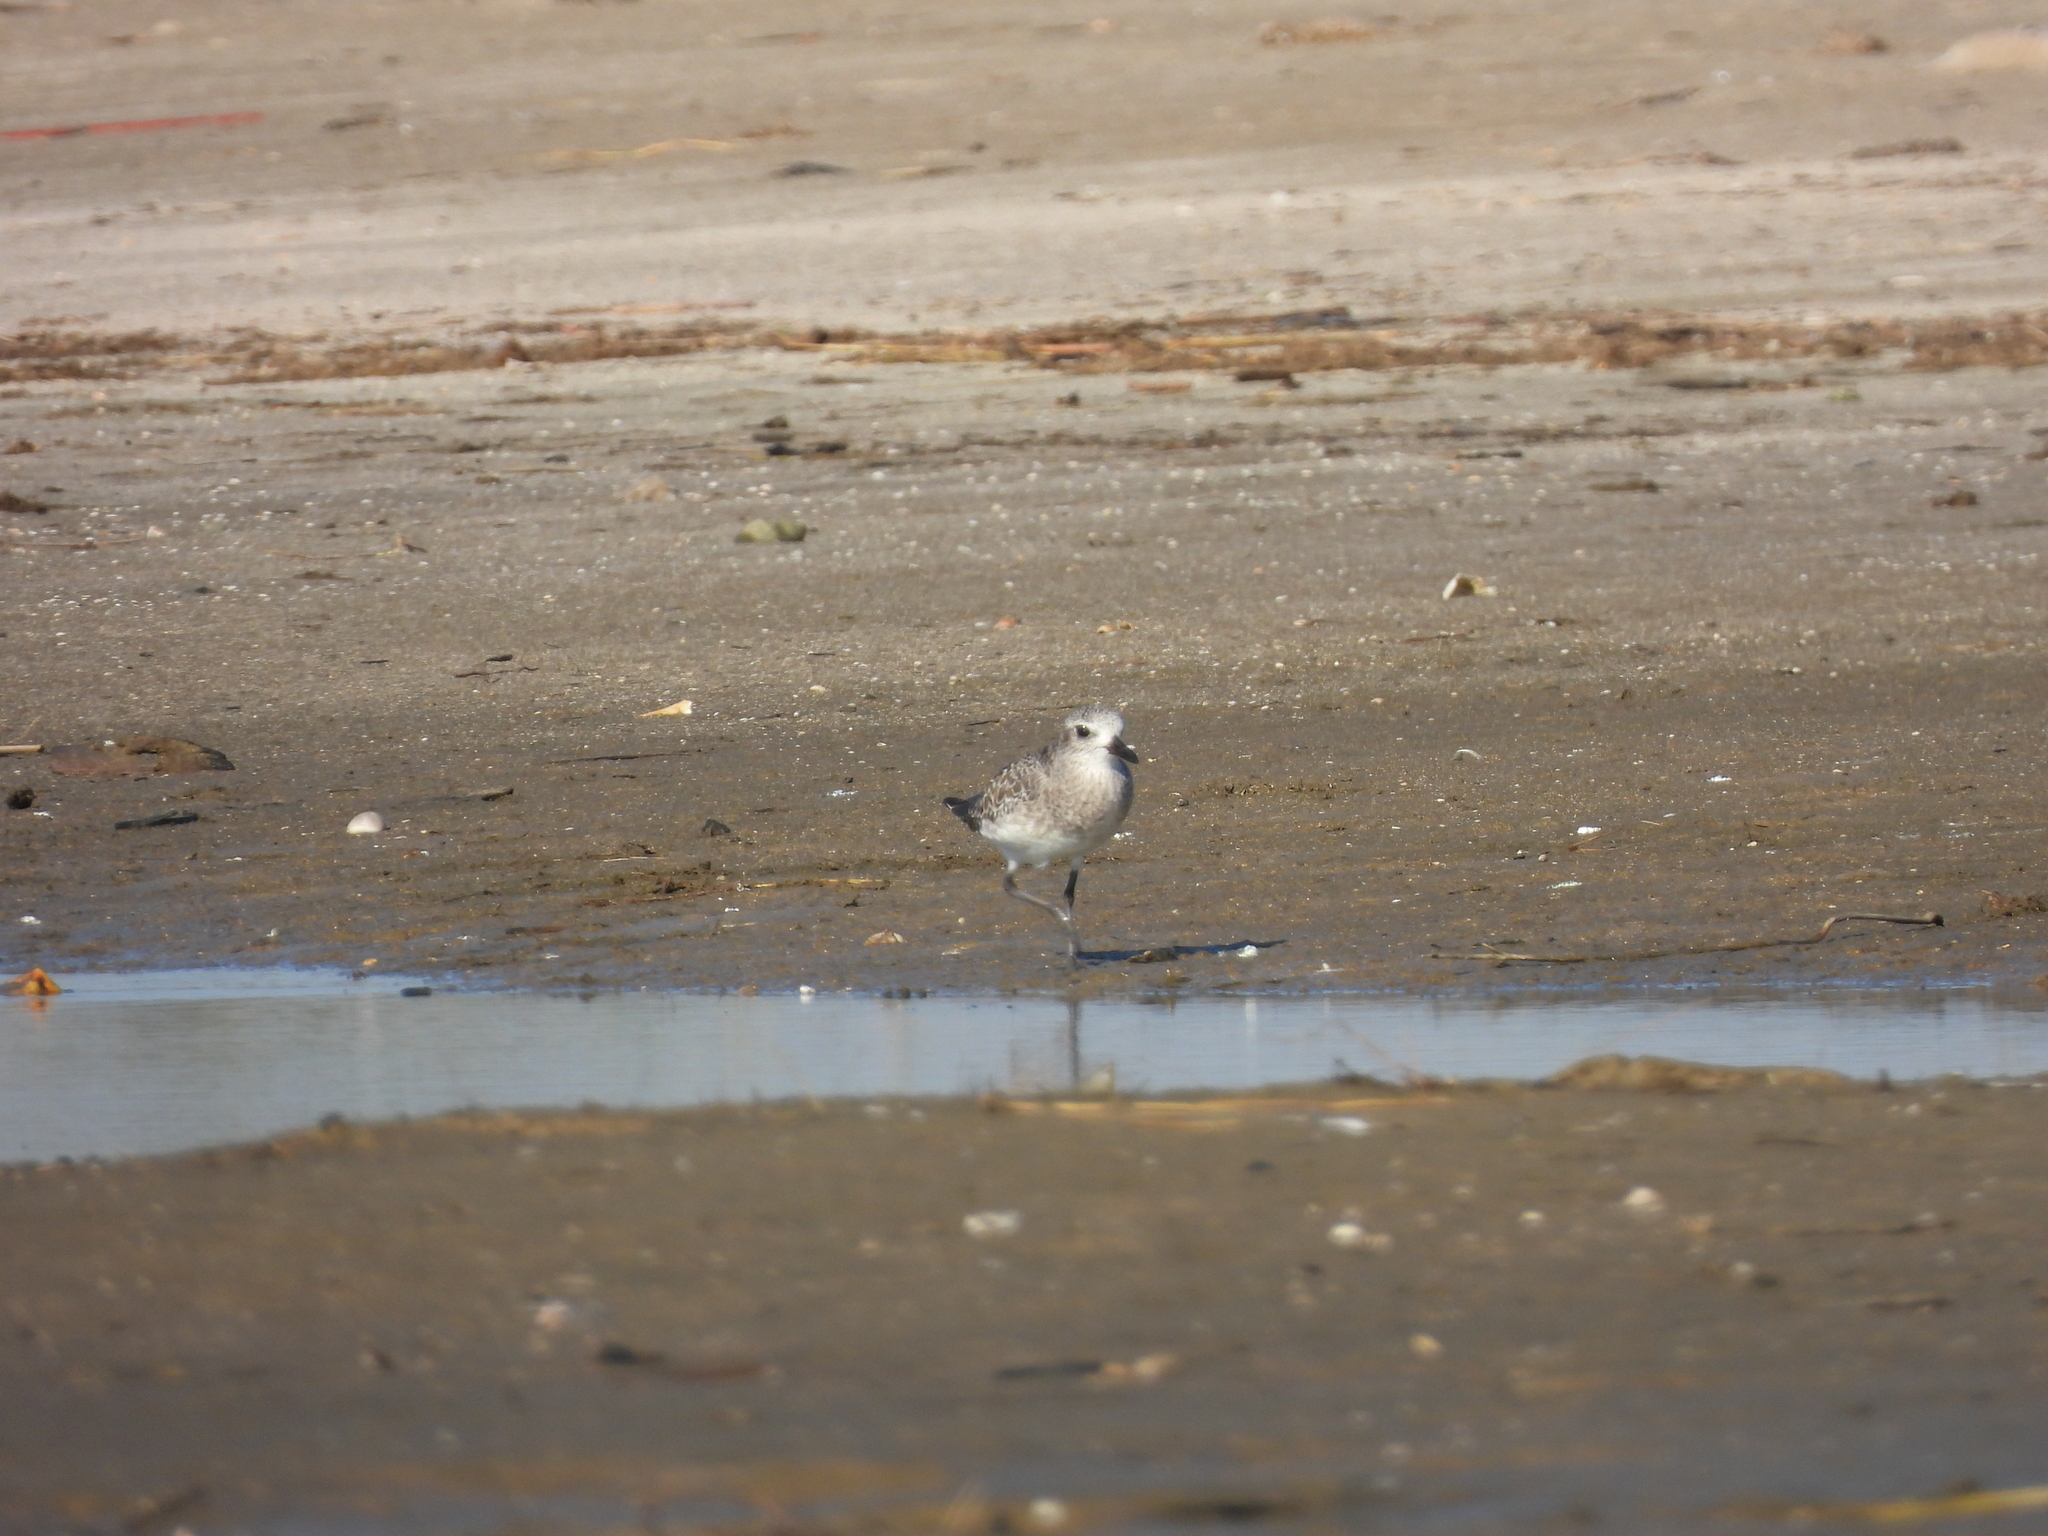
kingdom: Animalia
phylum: Chordata
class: Aves
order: Charadriiformes
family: Charadriidae
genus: Pluvialis
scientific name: Pluvialis squatarola
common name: Grey plover
